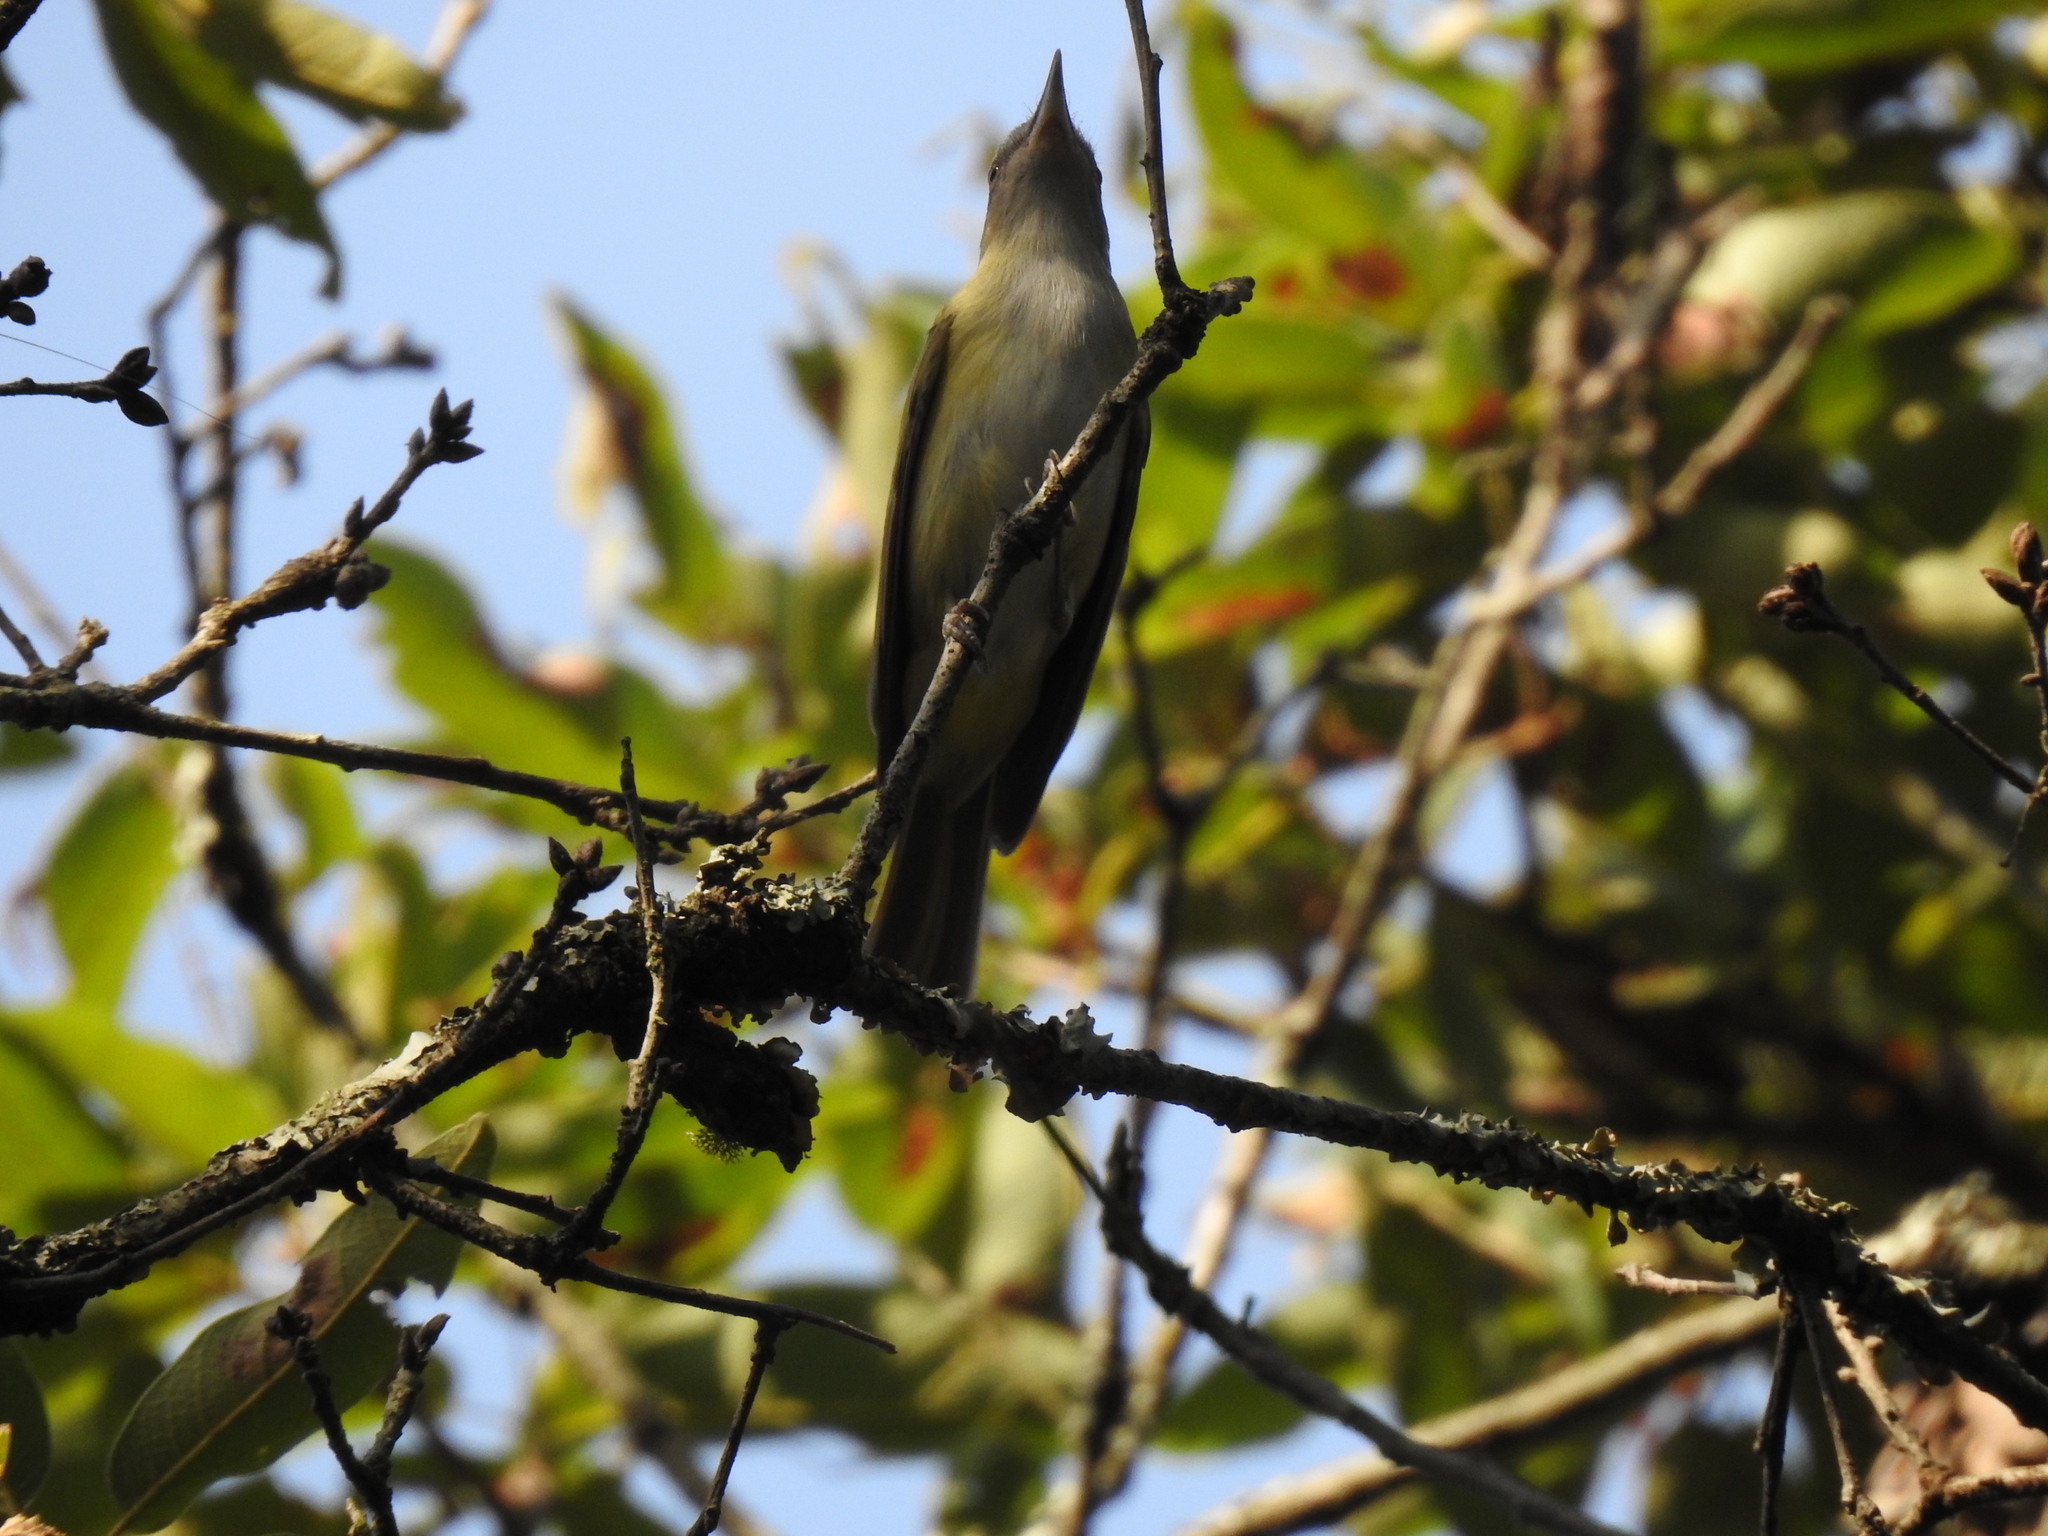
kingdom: Animalia
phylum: Chordata
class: Aves
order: Passeriformes
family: Vireonidae
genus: Vireo
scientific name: Vireo flavoviridis
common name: Yellow-green vireo
